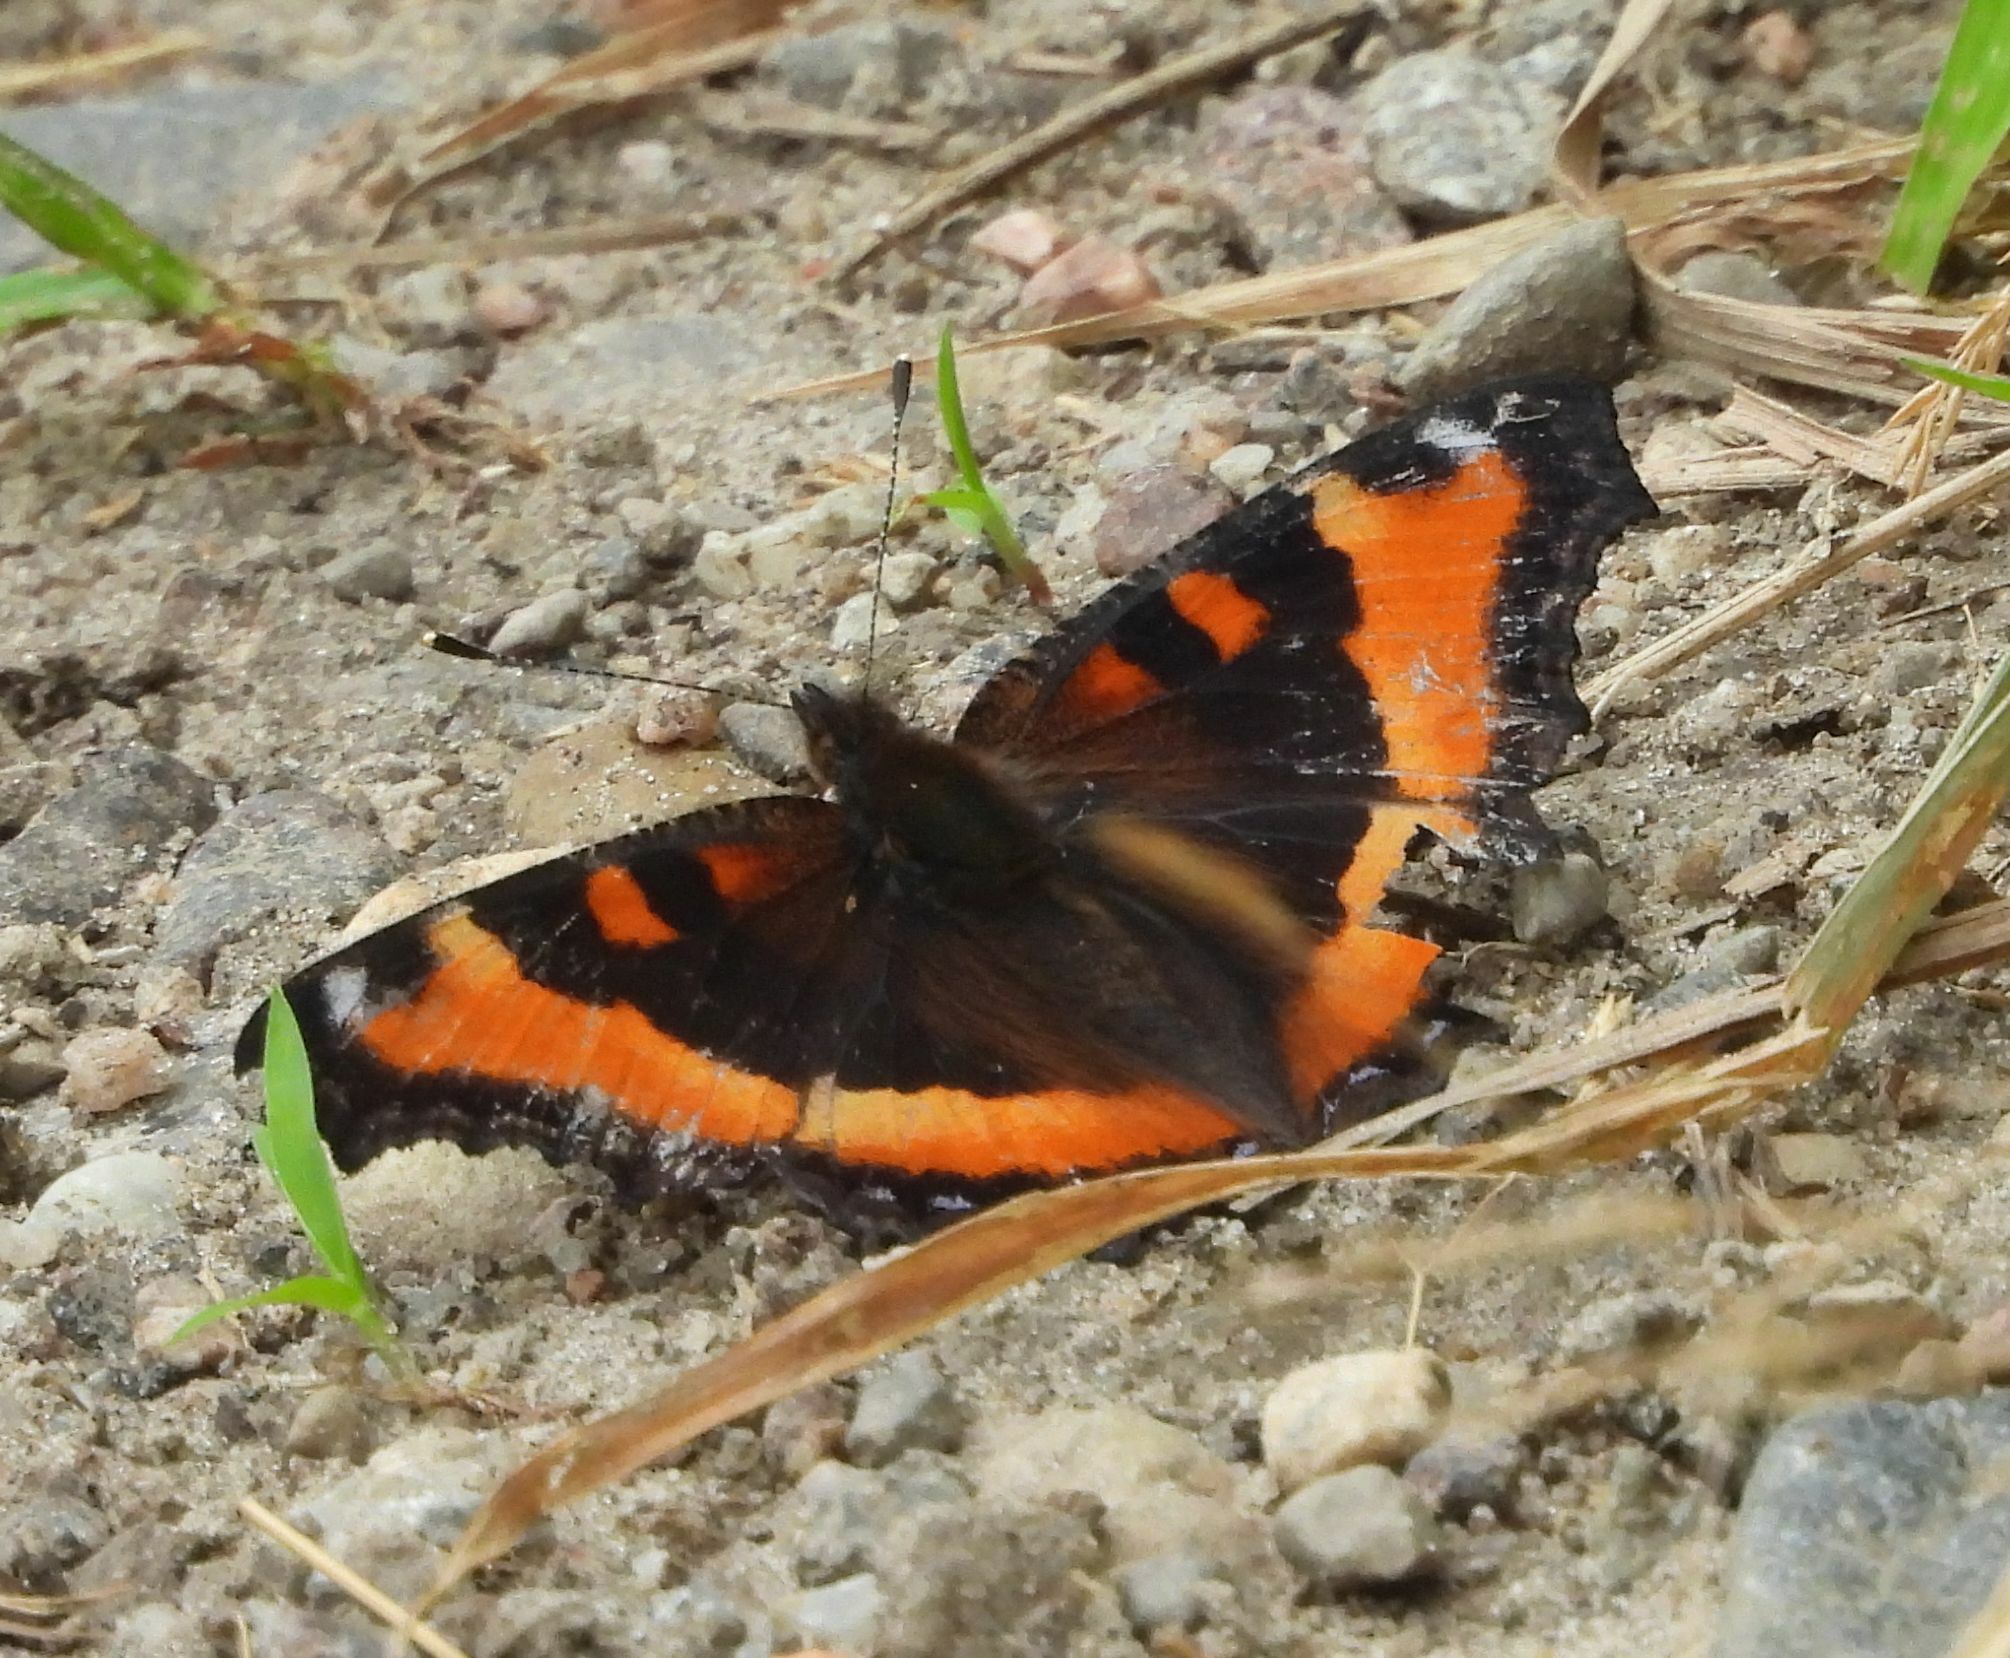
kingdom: Animalia
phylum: Arthropoda
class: Insecta
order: Lepidoptera
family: Nymphalidae
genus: Aglais
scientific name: Aglais milberti
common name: Milbert's tortoiseshell
